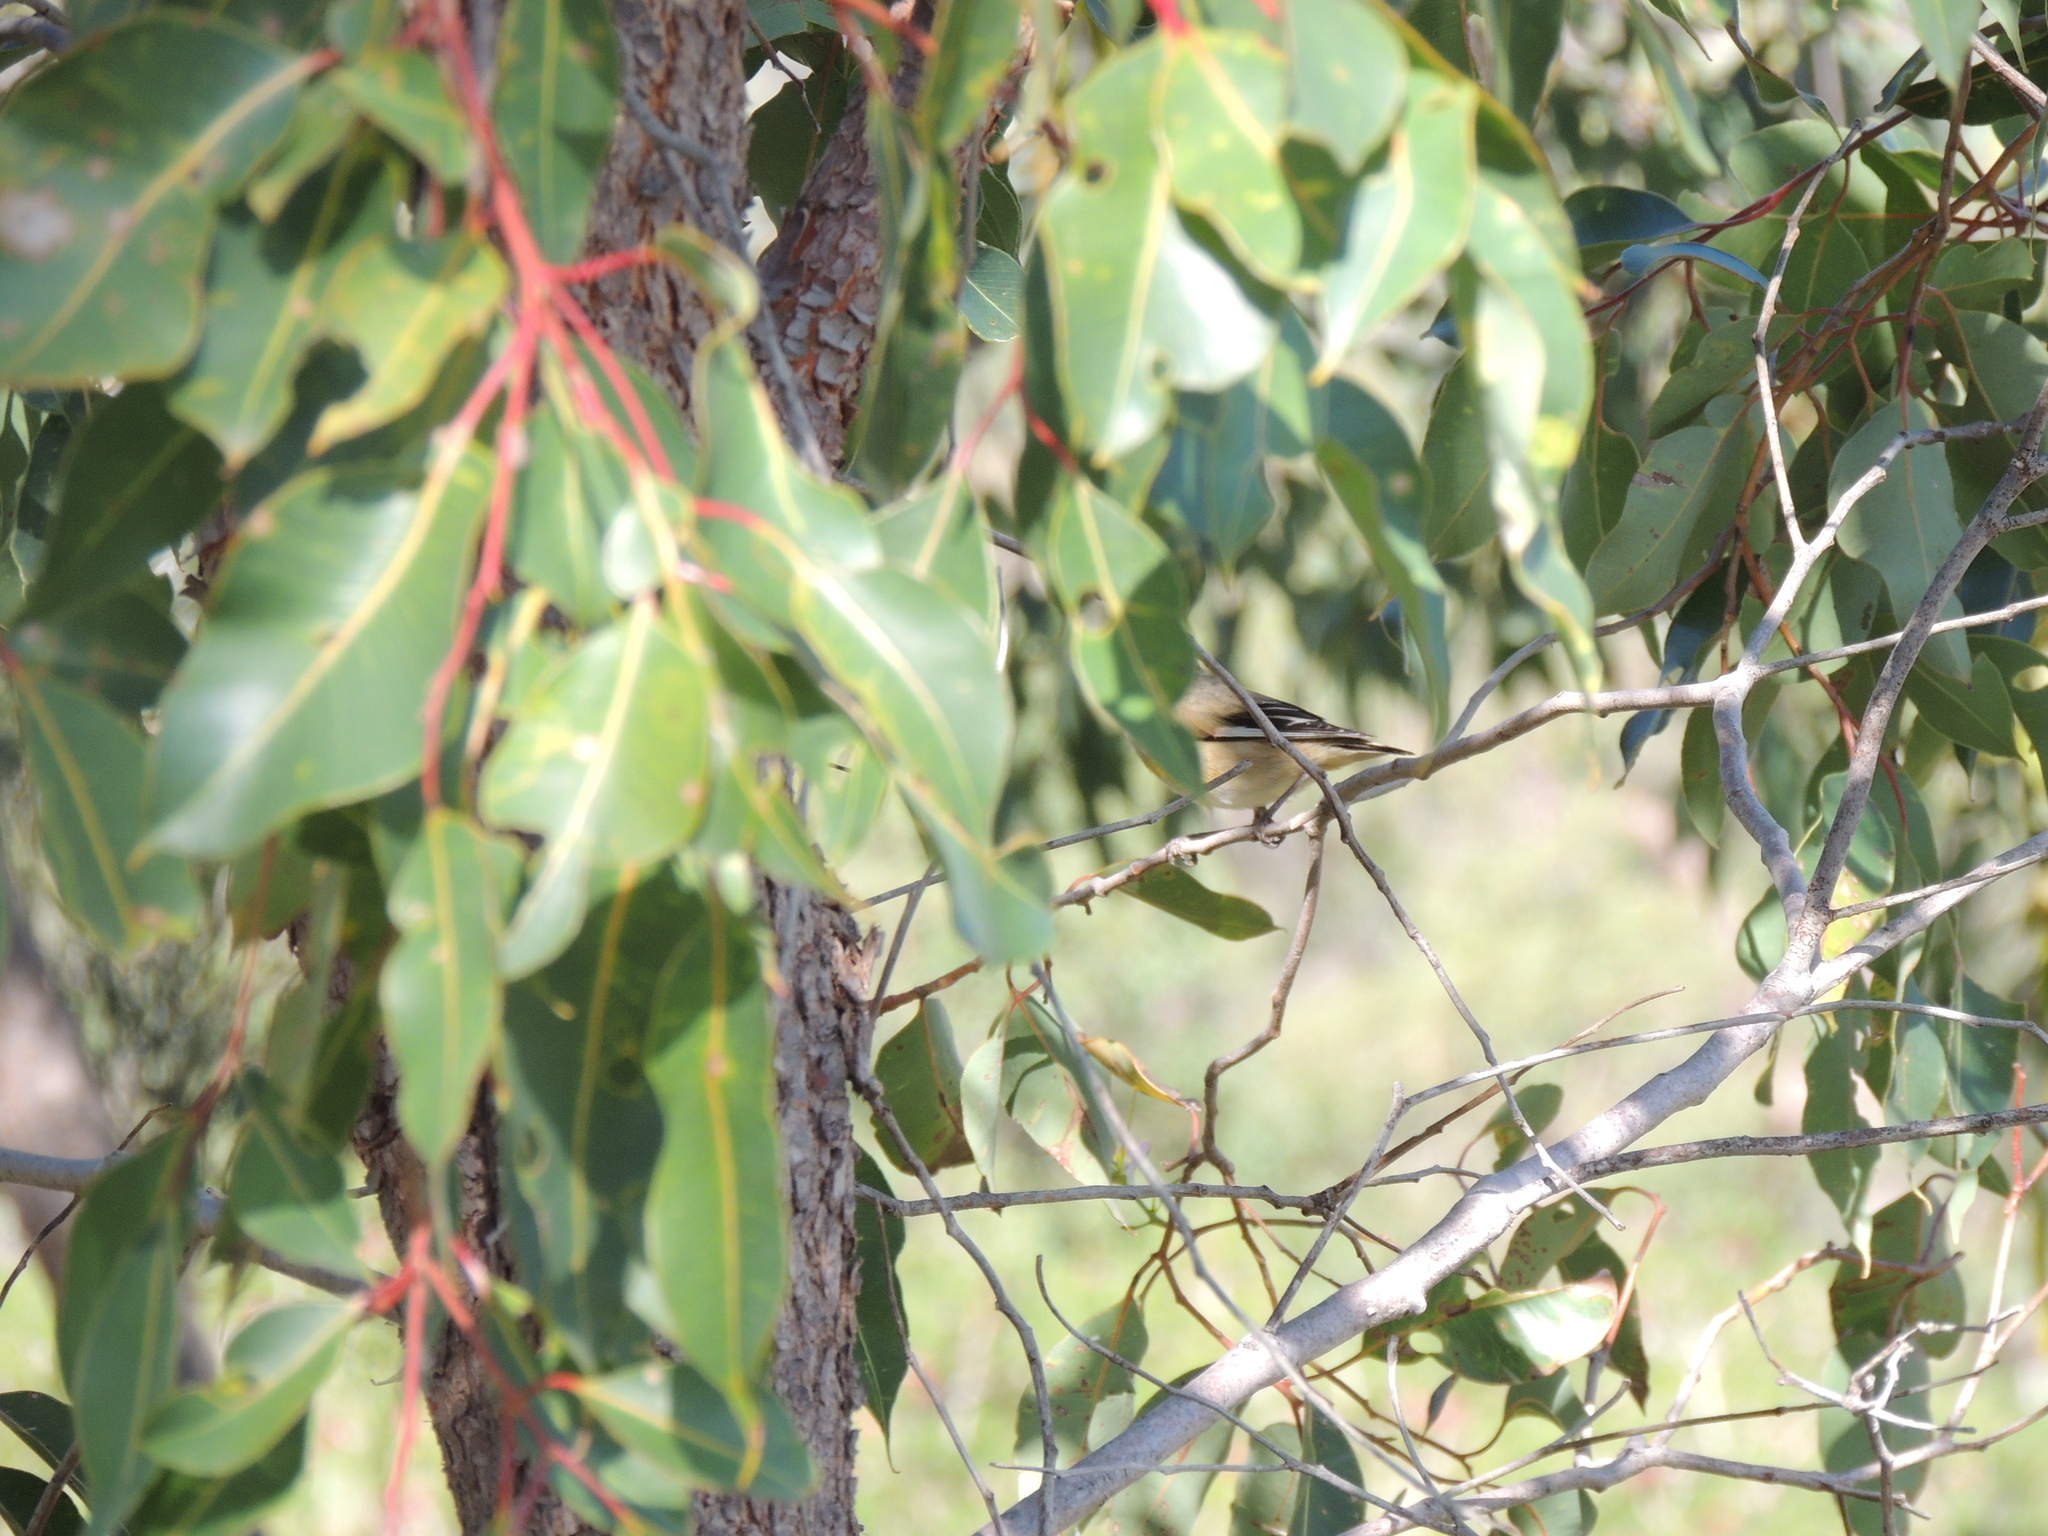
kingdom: Animalia
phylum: Chordata
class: Aves
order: Passeriformes
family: Pardalotidae
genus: Pardalotus
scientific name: Pardalotus striatus
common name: Striated pardalote
